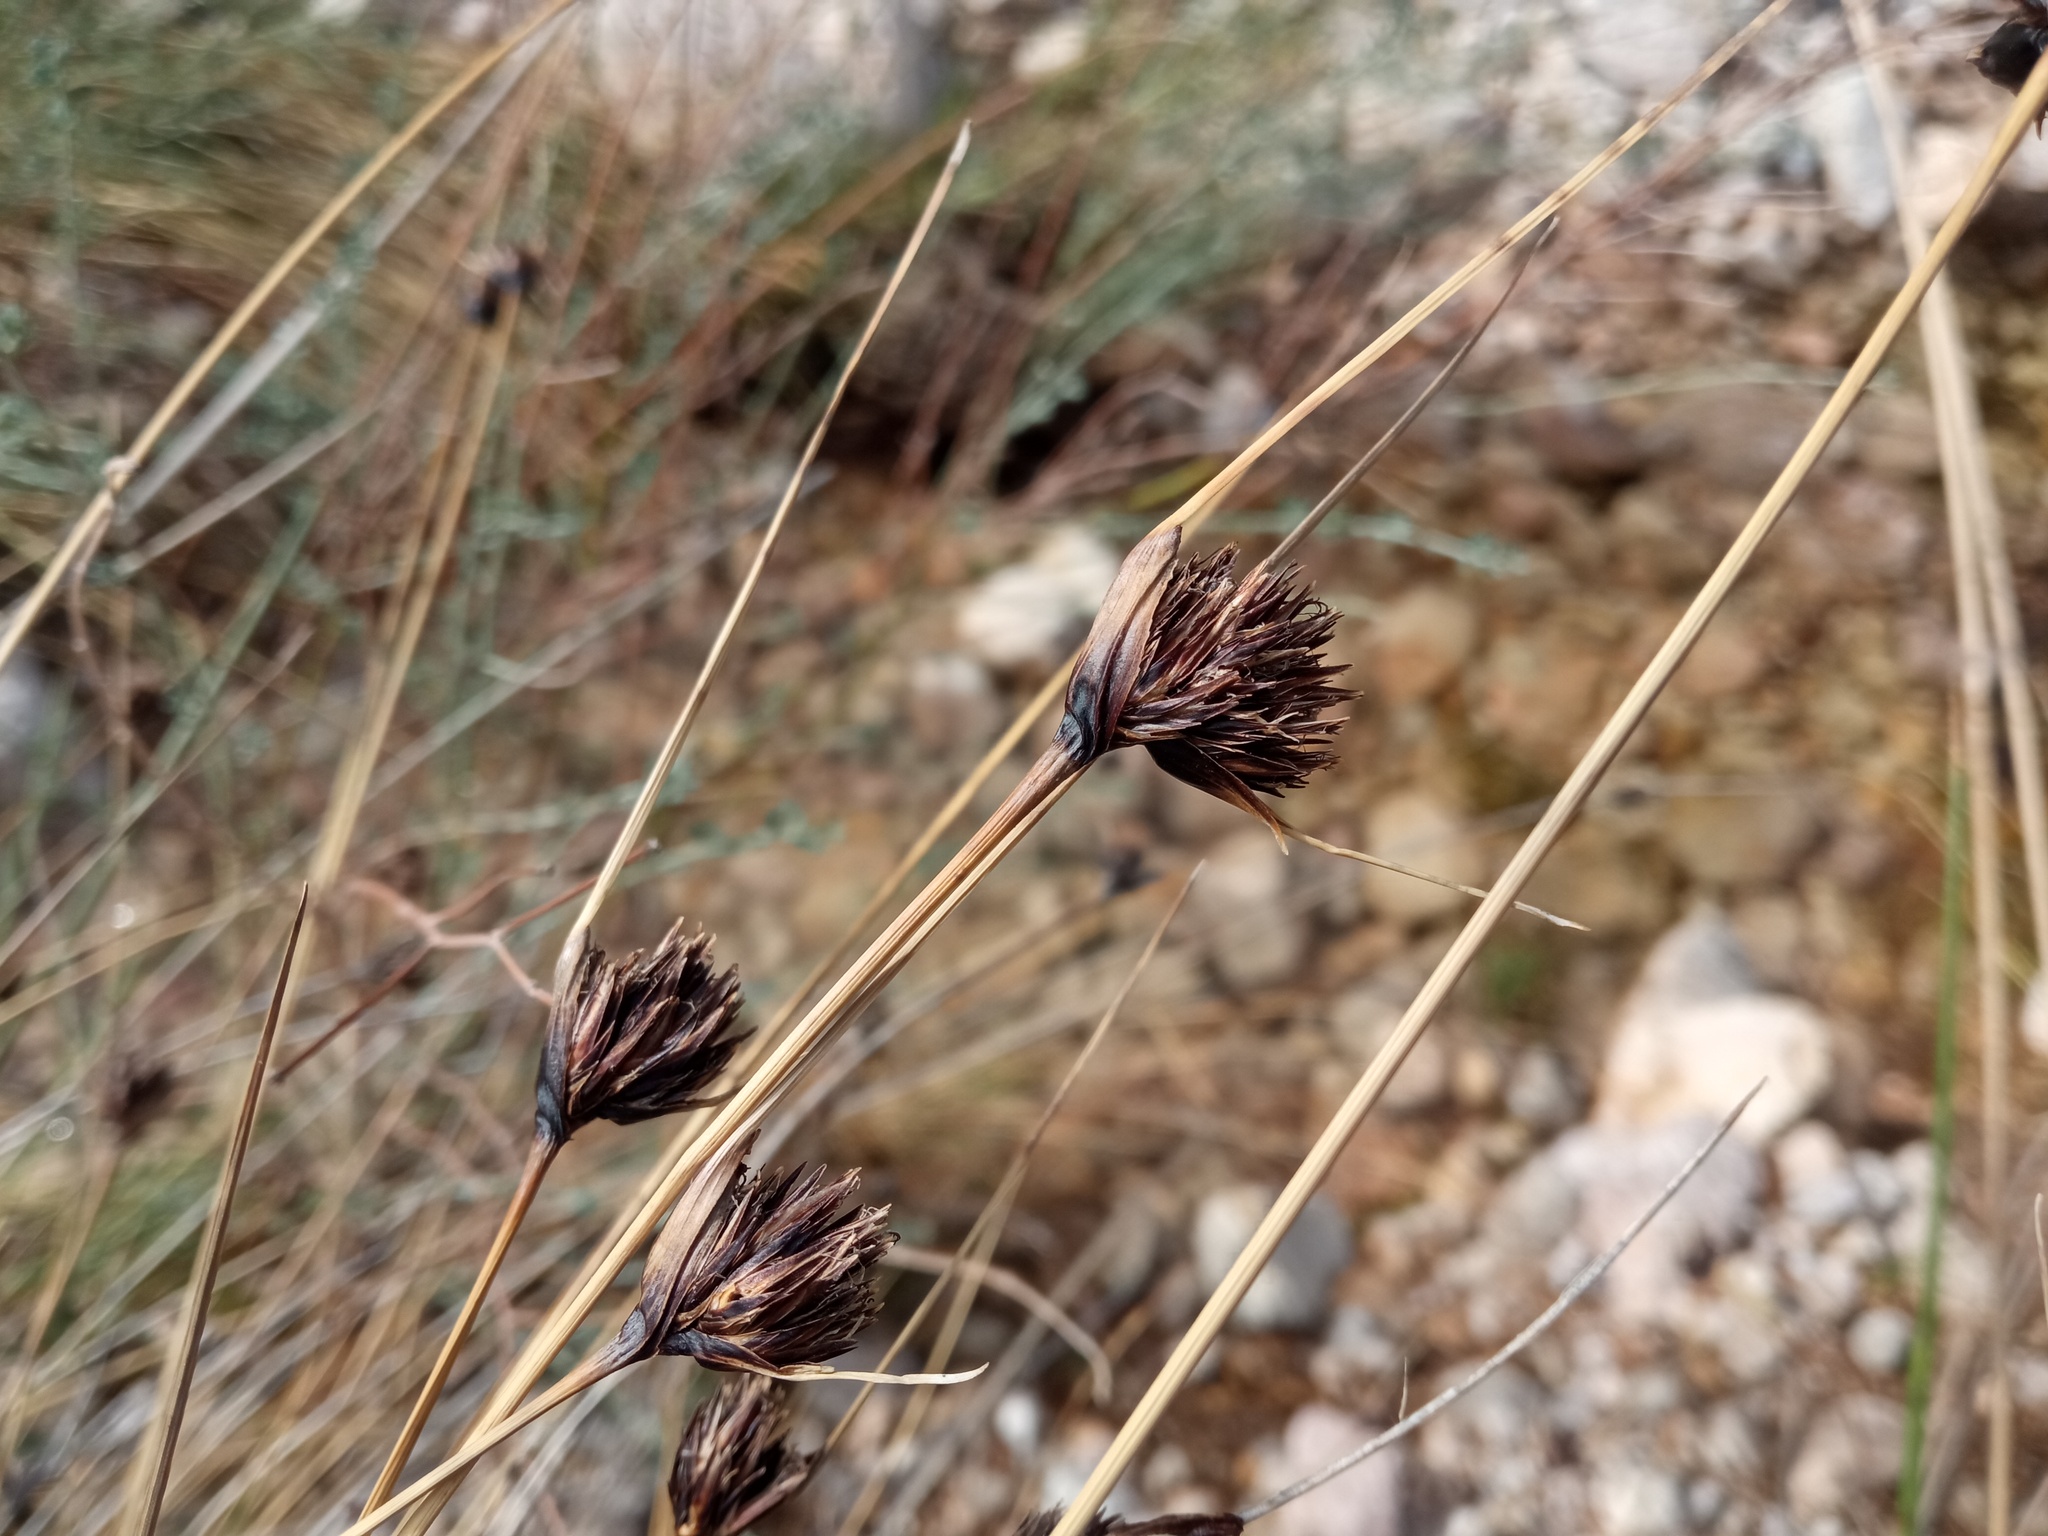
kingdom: Plantae
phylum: Tracheophyta
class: Liliopsida
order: Poales
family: Cyperaceae
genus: Schoenus
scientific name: Schoenus nigricans
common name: Black bog-rush
